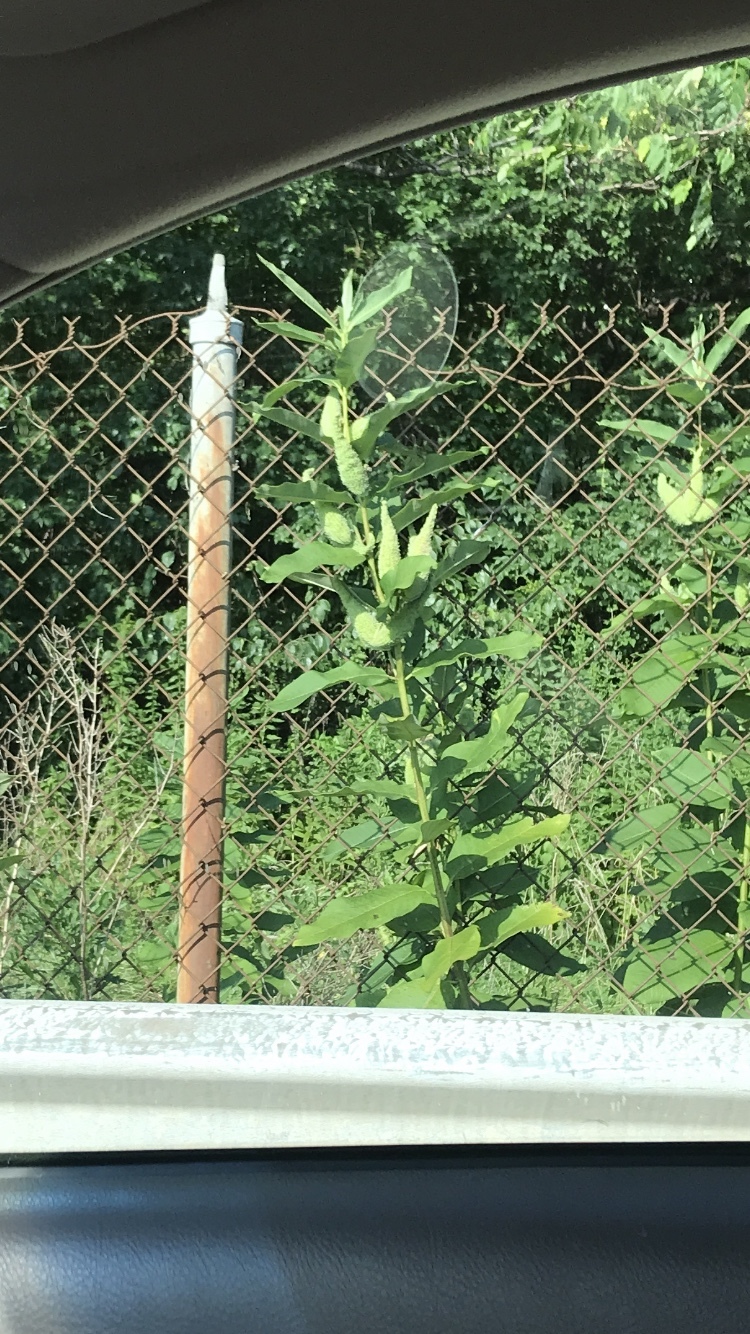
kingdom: Plantae
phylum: Tracheophyta
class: Magnoliopsida
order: Gentianales
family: Apocynaceae
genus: Asclepias
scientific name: Asclepias syriaca
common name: Common milkweed
